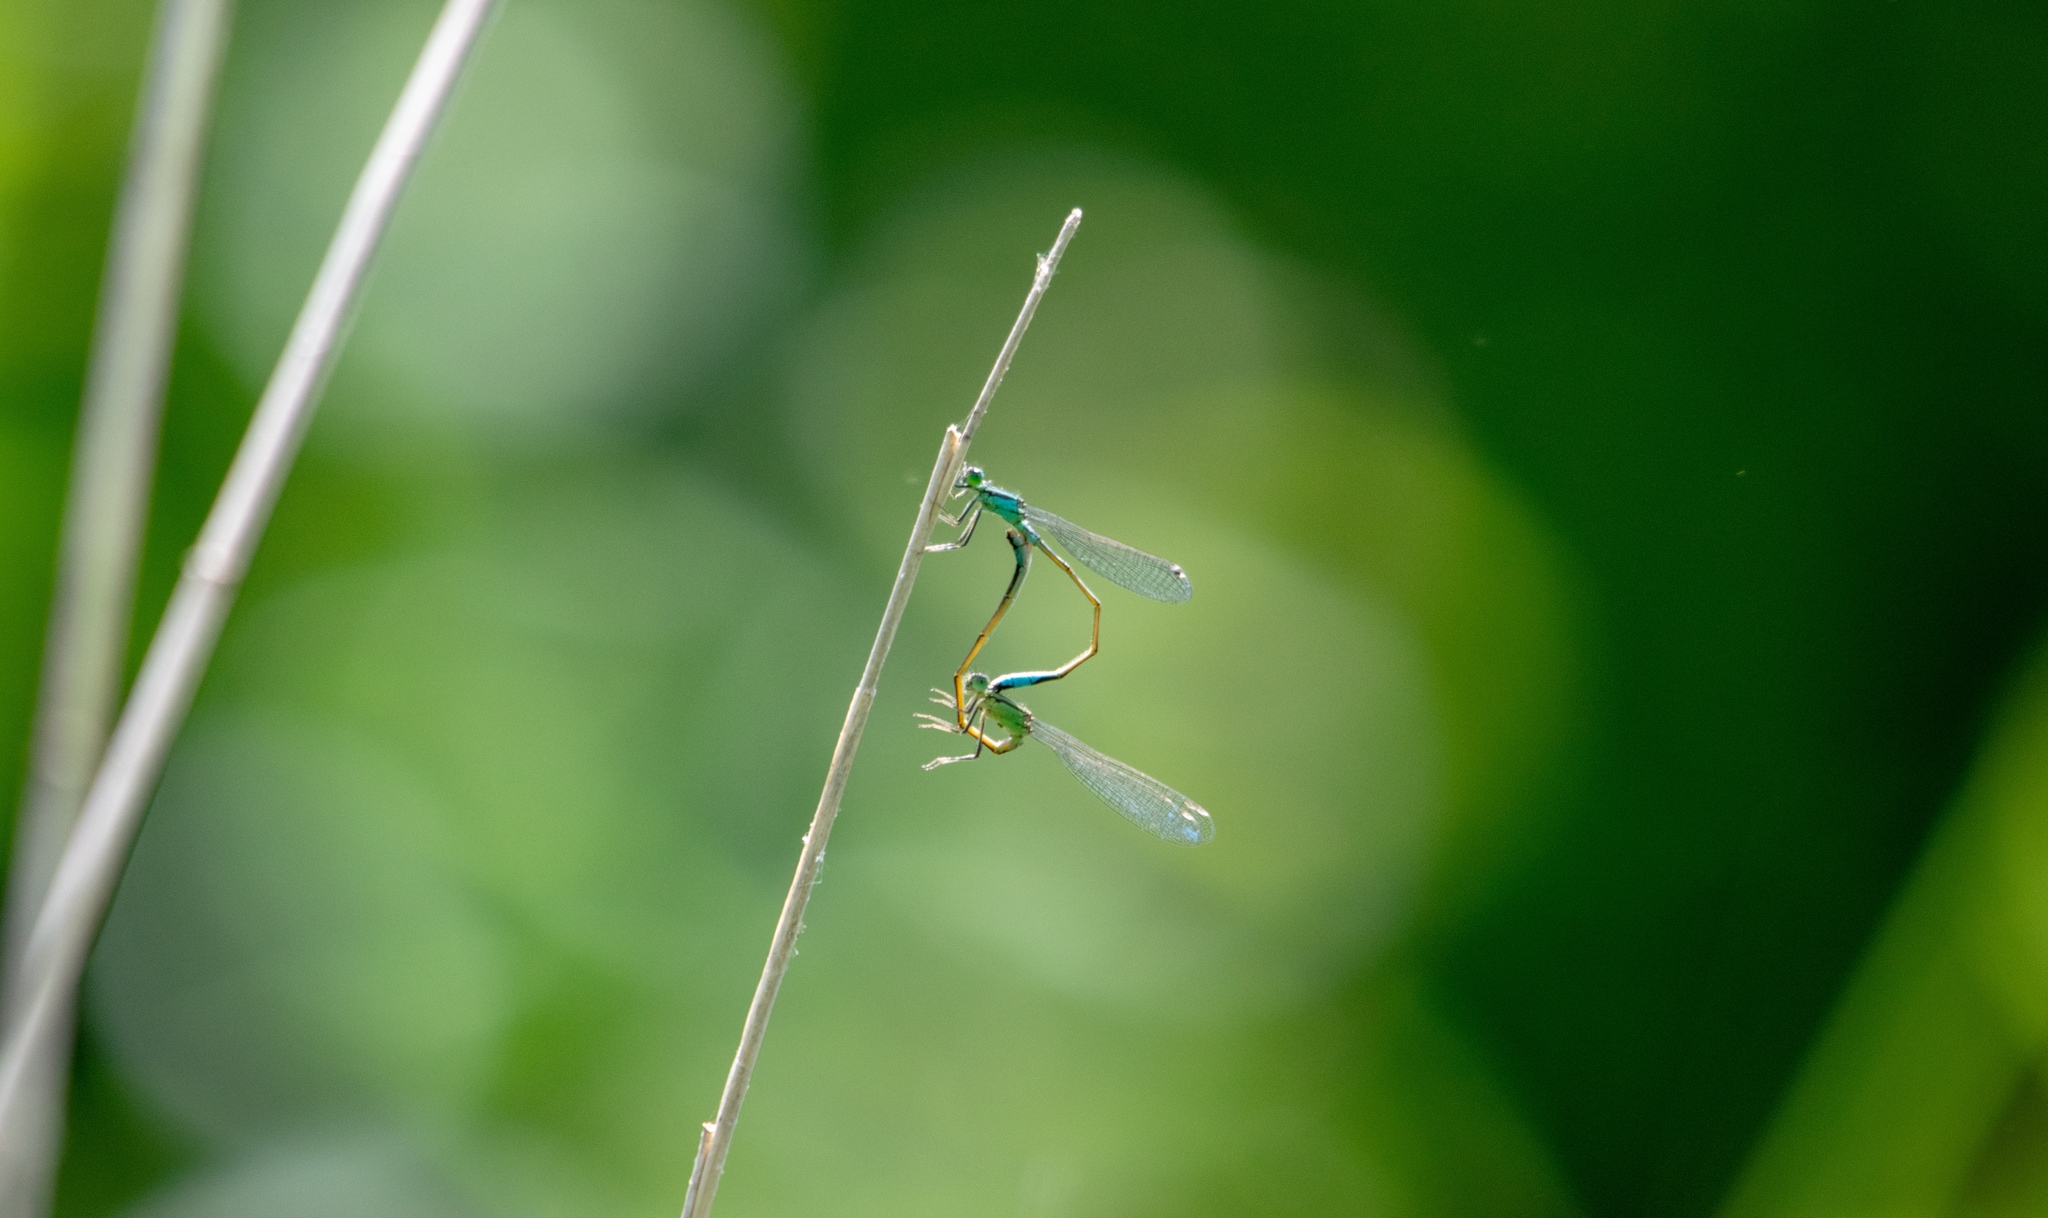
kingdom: Animalia
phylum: Arthropoda
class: Insecta
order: Odonata
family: Coenagrionidae
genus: Ischnura
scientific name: Ischnura elegans
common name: Blue-tailed damselfly
